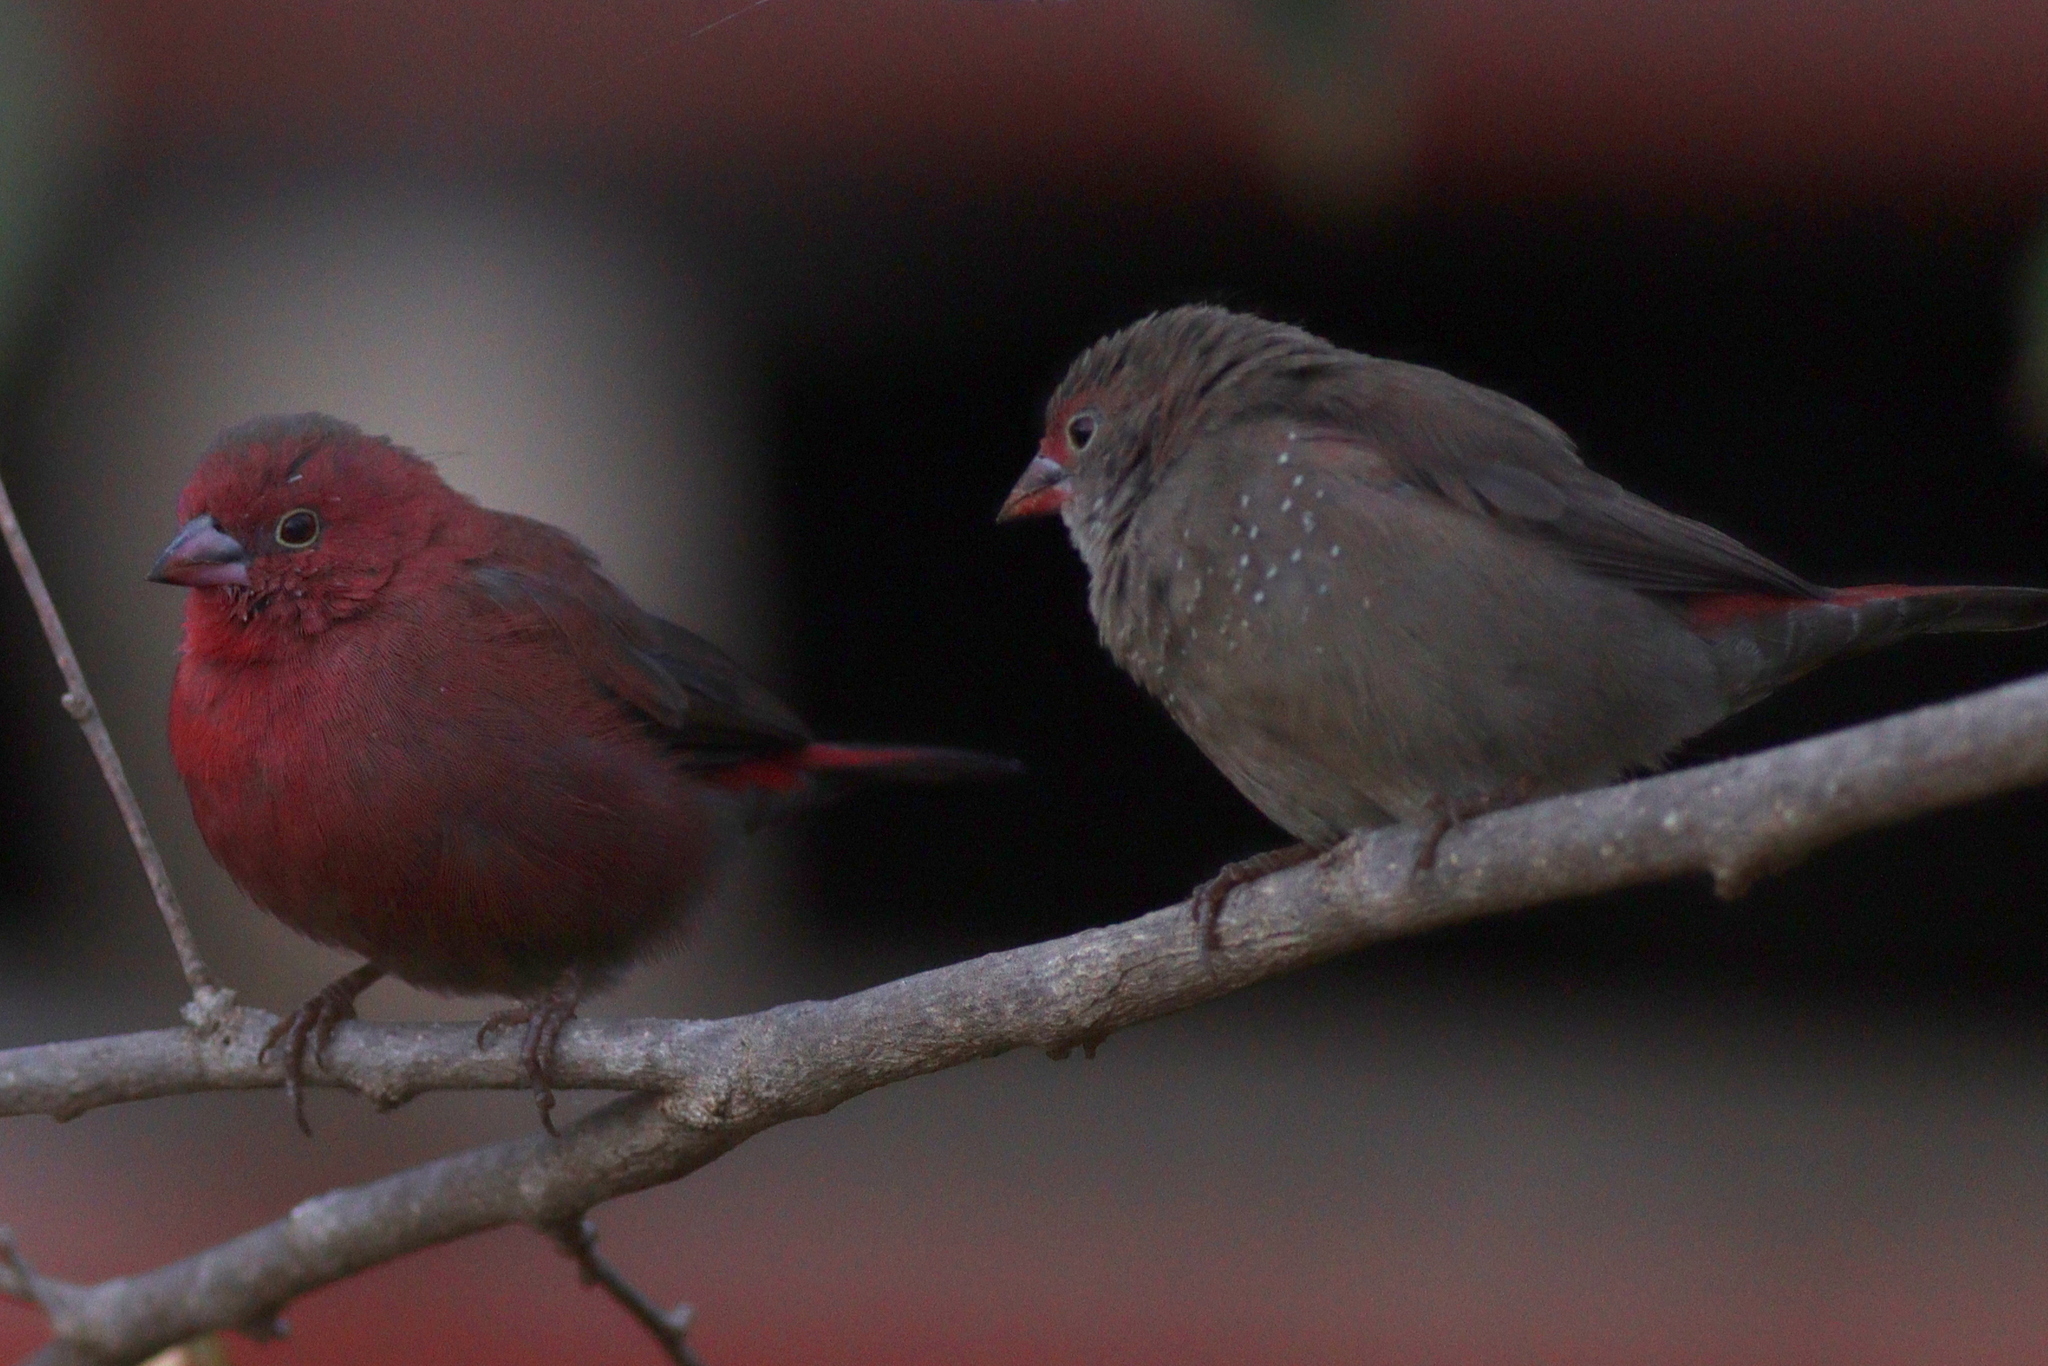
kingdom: Animalia
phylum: Chordata
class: Aves
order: Passeriformes
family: Estrildidae
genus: Lagonosticta
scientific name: Lagonosticta senegala
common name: Red-billed firefinch
